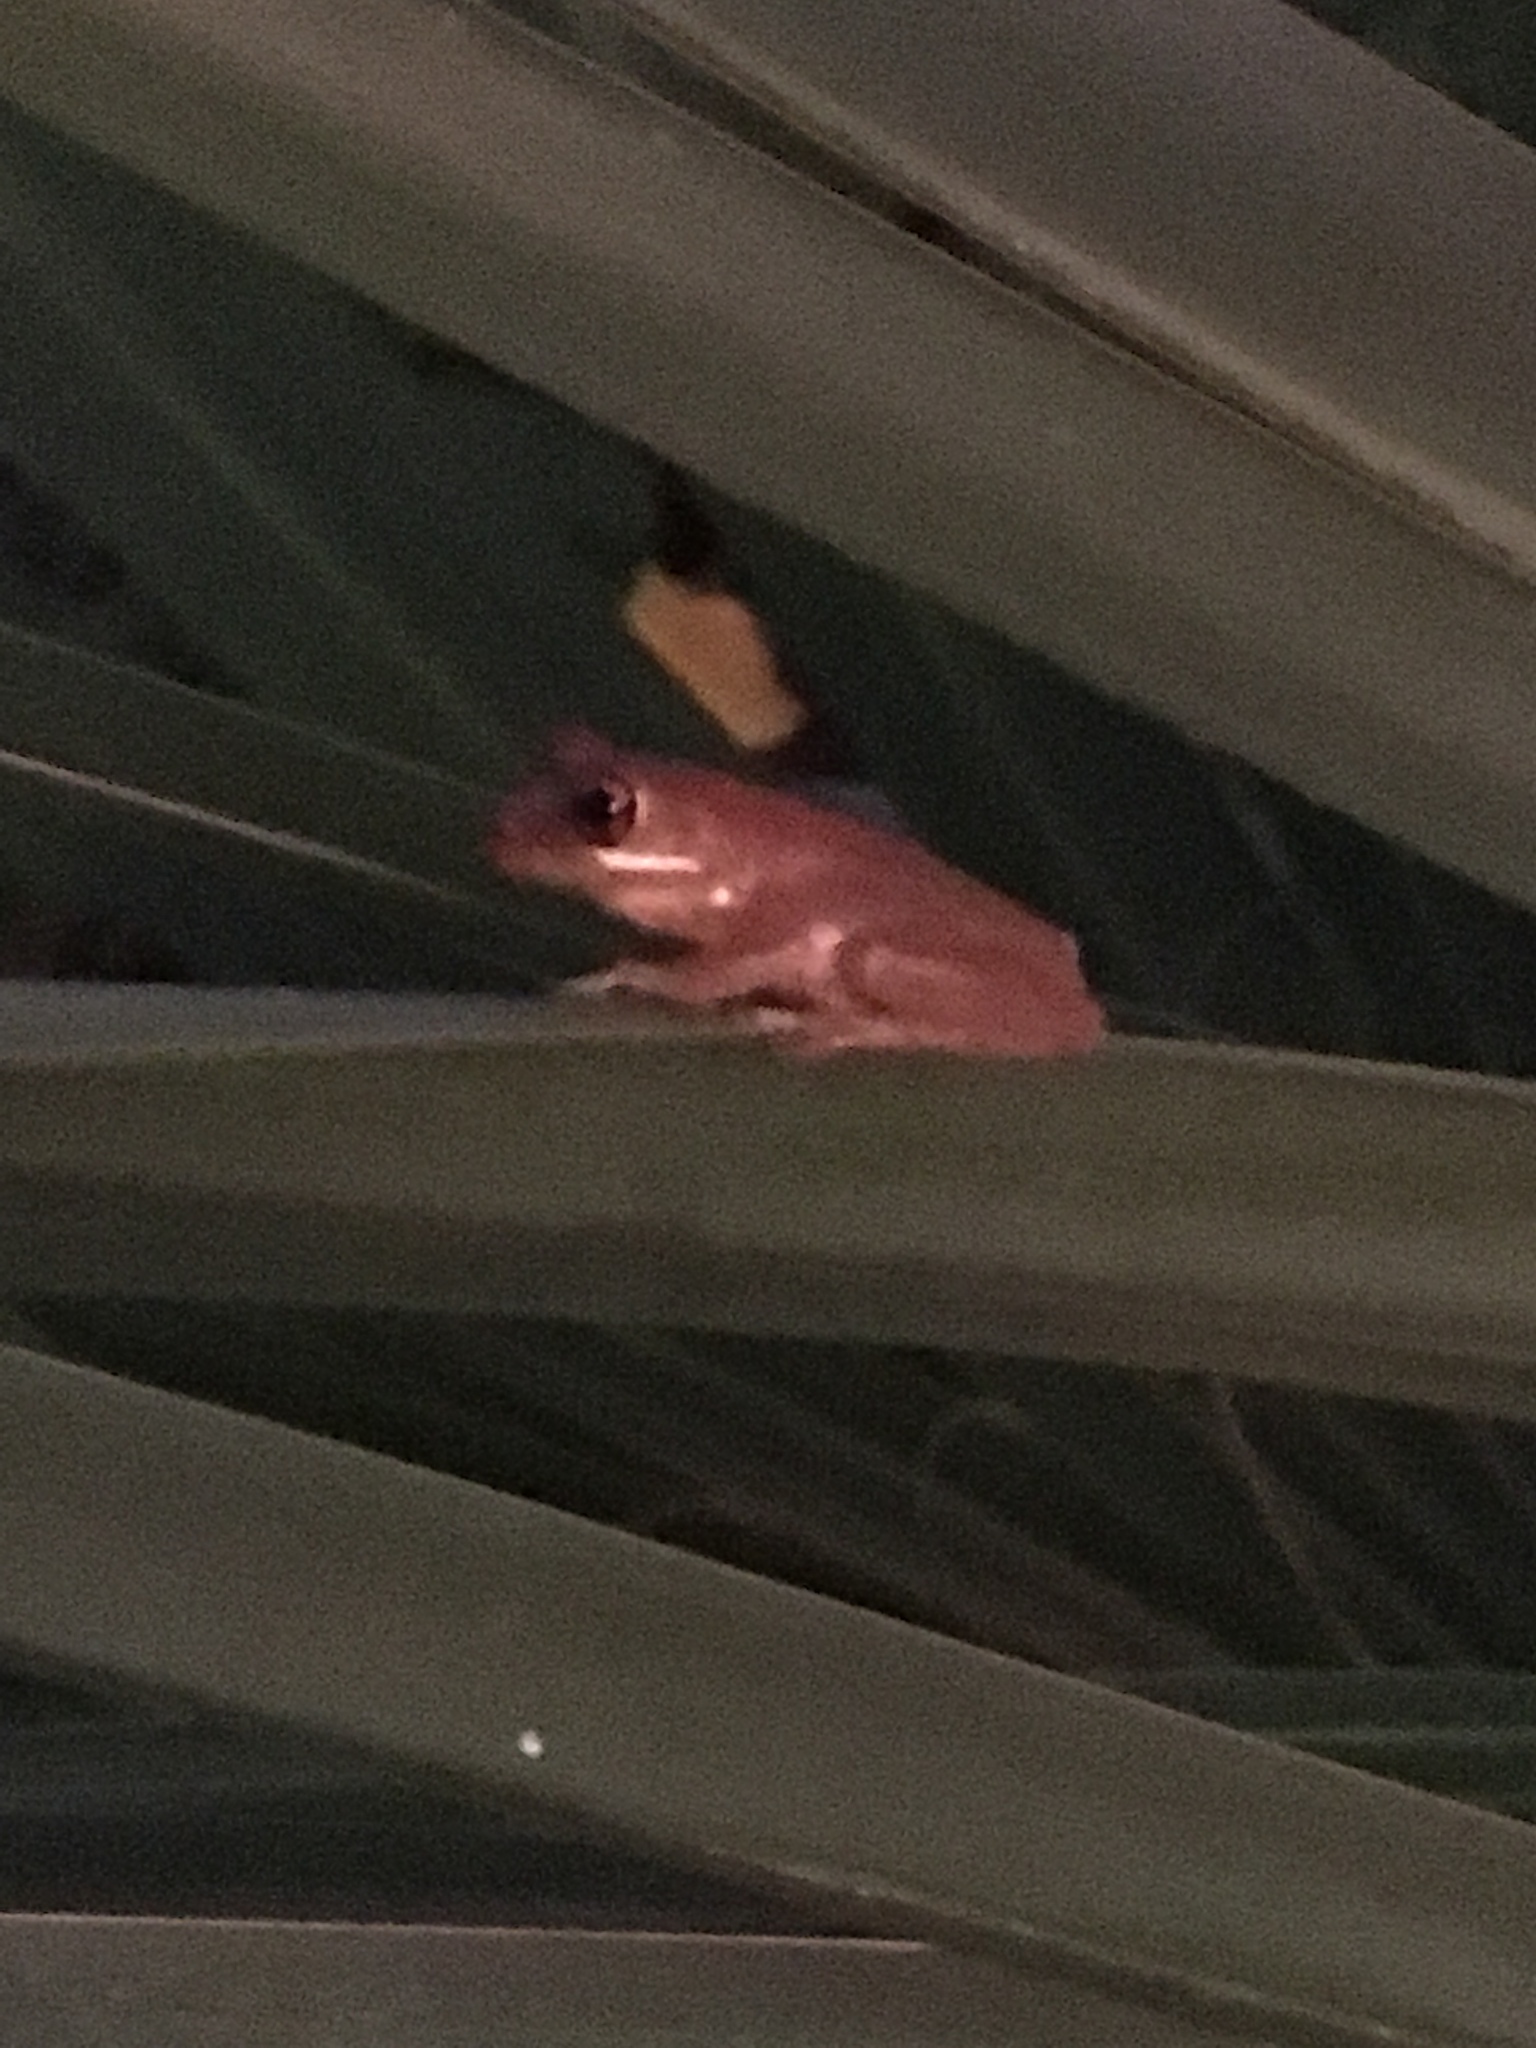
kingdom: Animalia
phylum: Chordata
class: Amphibia
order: Anura
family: Hylidae
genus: Osteopilus
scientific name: Osteopilus septentrionalis
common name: Cuban treefrog
